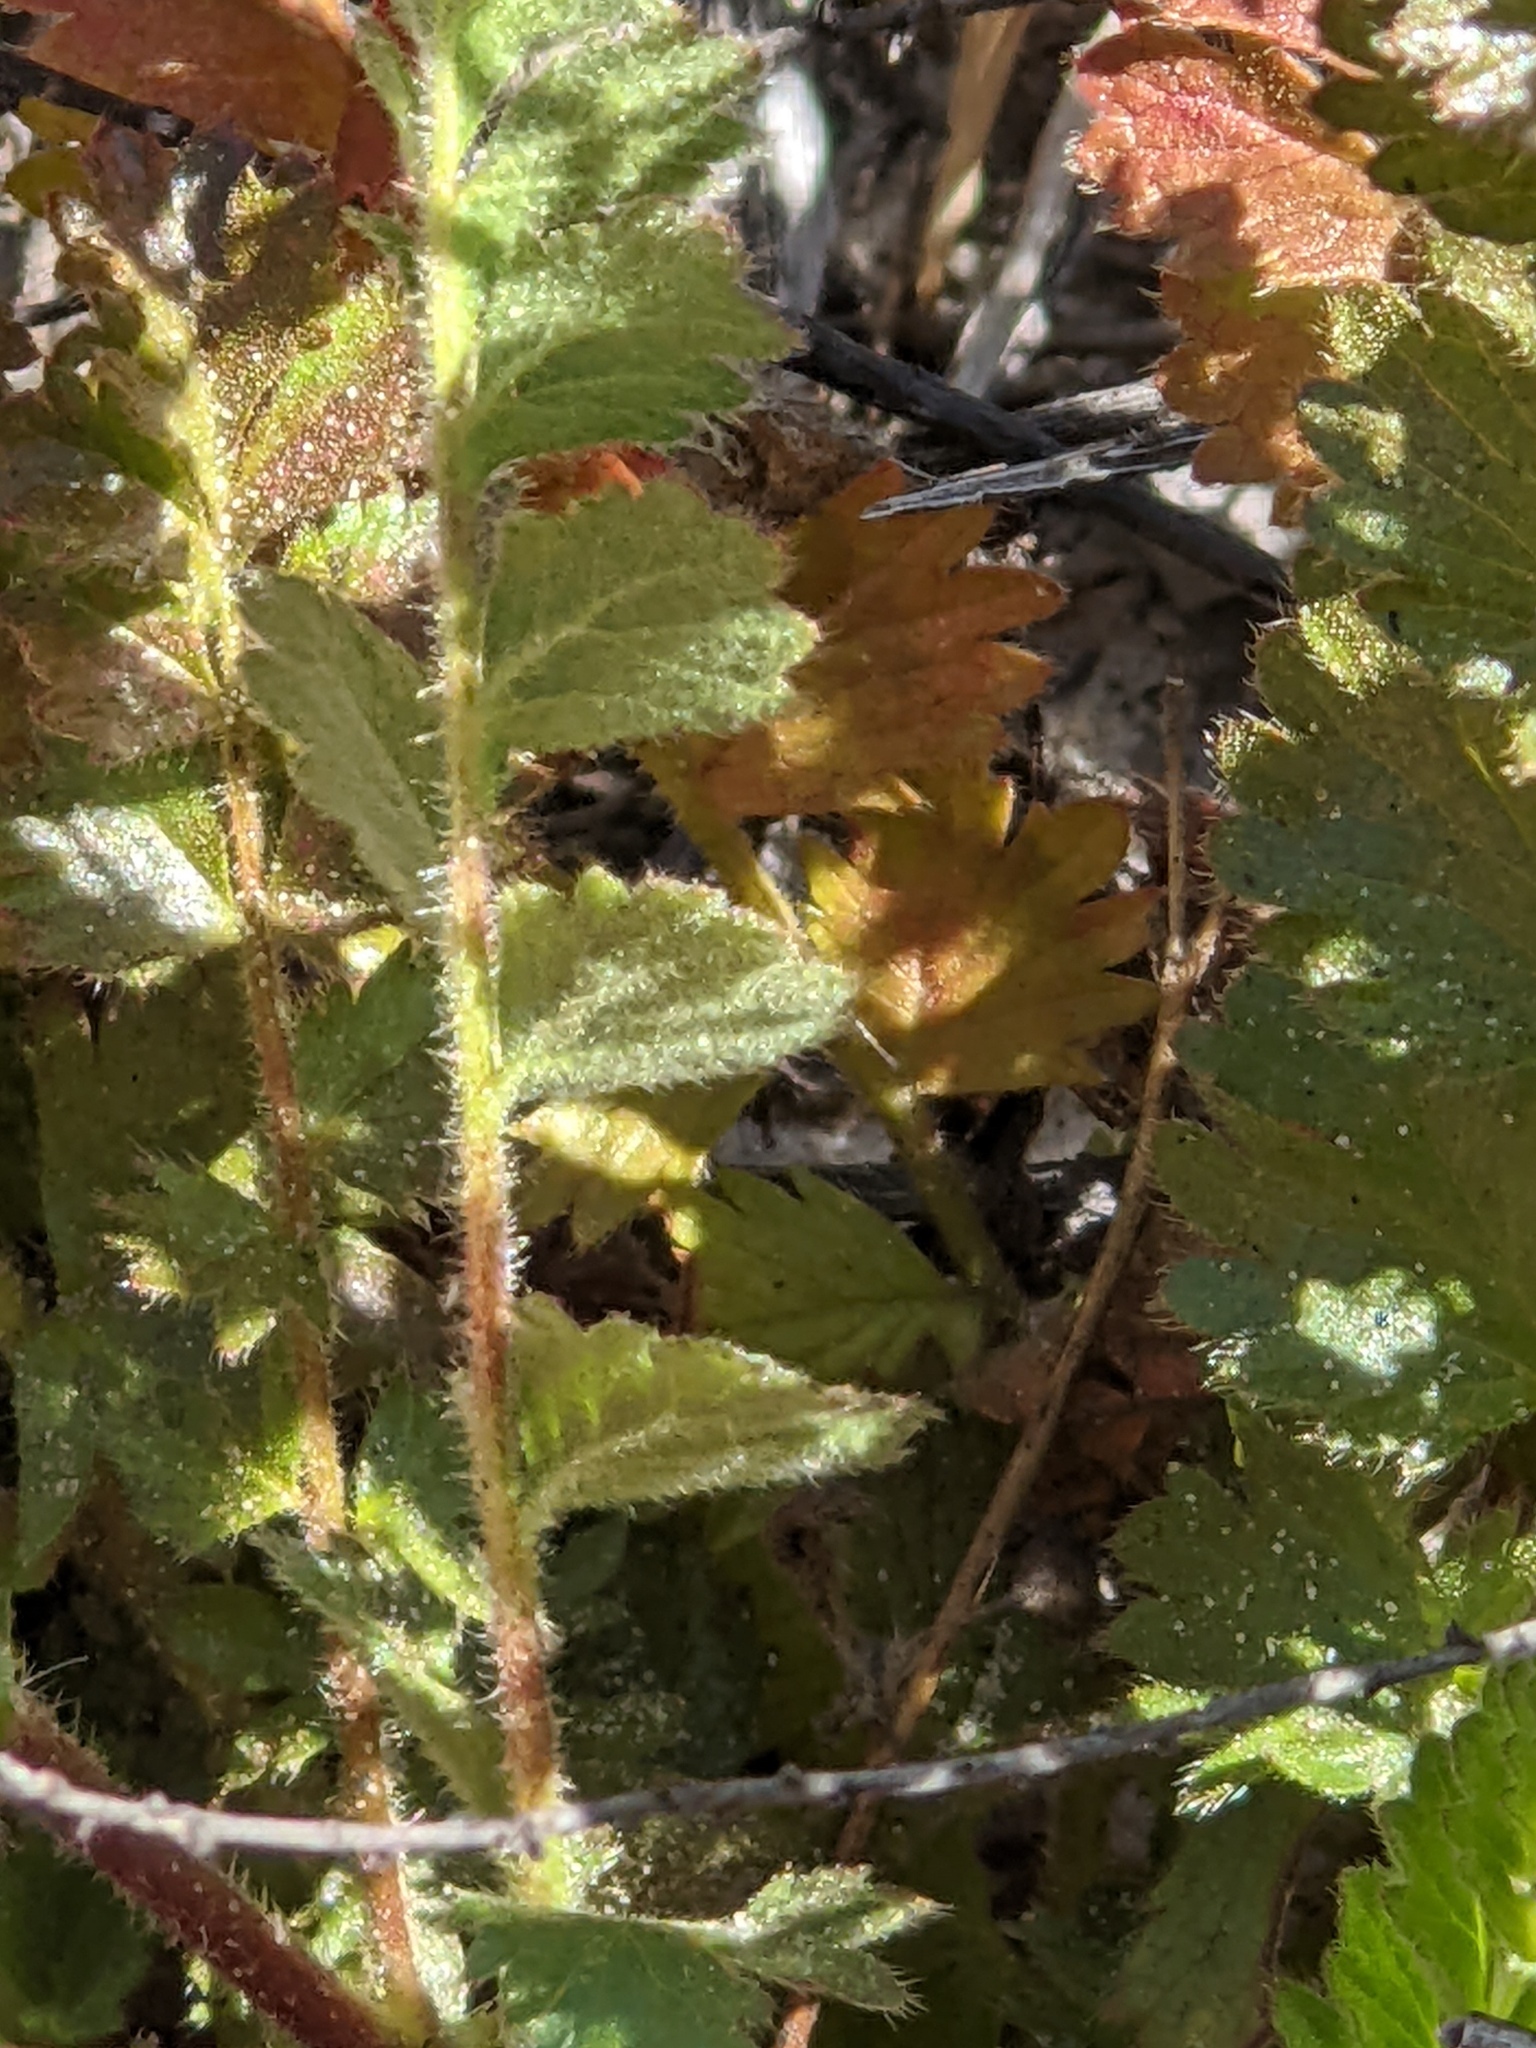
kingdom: Plantae
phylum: Tracheophyta
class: Magnoliopsida
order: Rosales
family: Rosaceae
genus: Potentilla
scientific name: Potentilla
